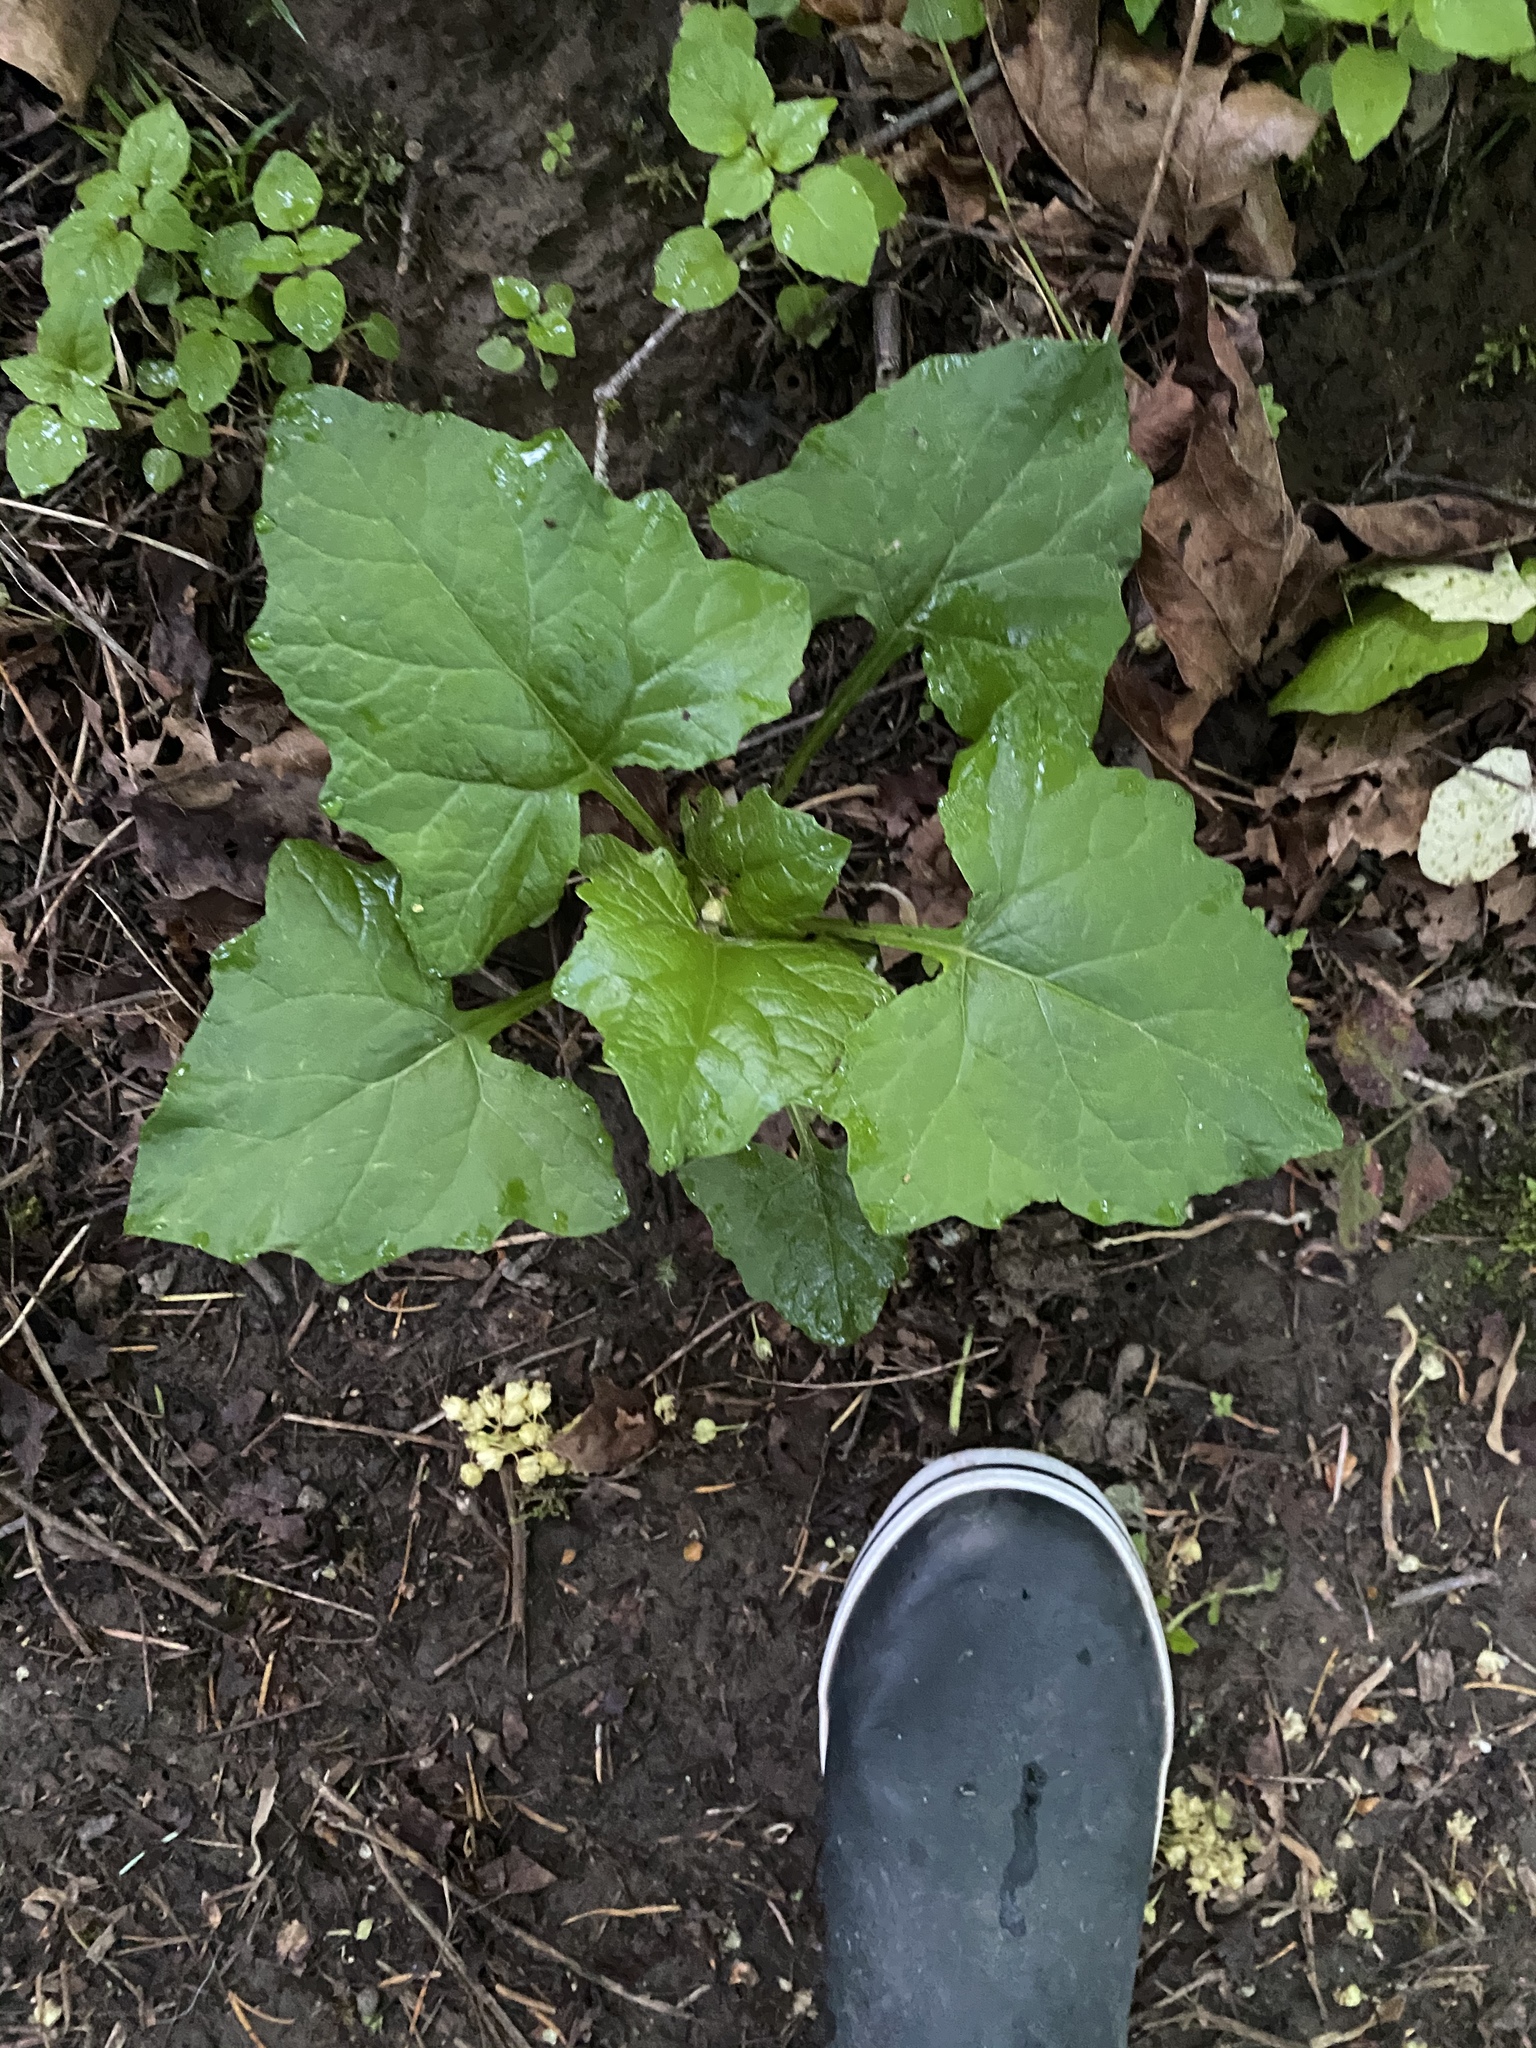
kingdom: Plantae
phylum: Tracheophyta
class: Magnoliopsida
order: Asterales
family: Asteraceae
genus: Adenocaulon
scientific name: Adenocaulon bicolor
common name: Trailplant
